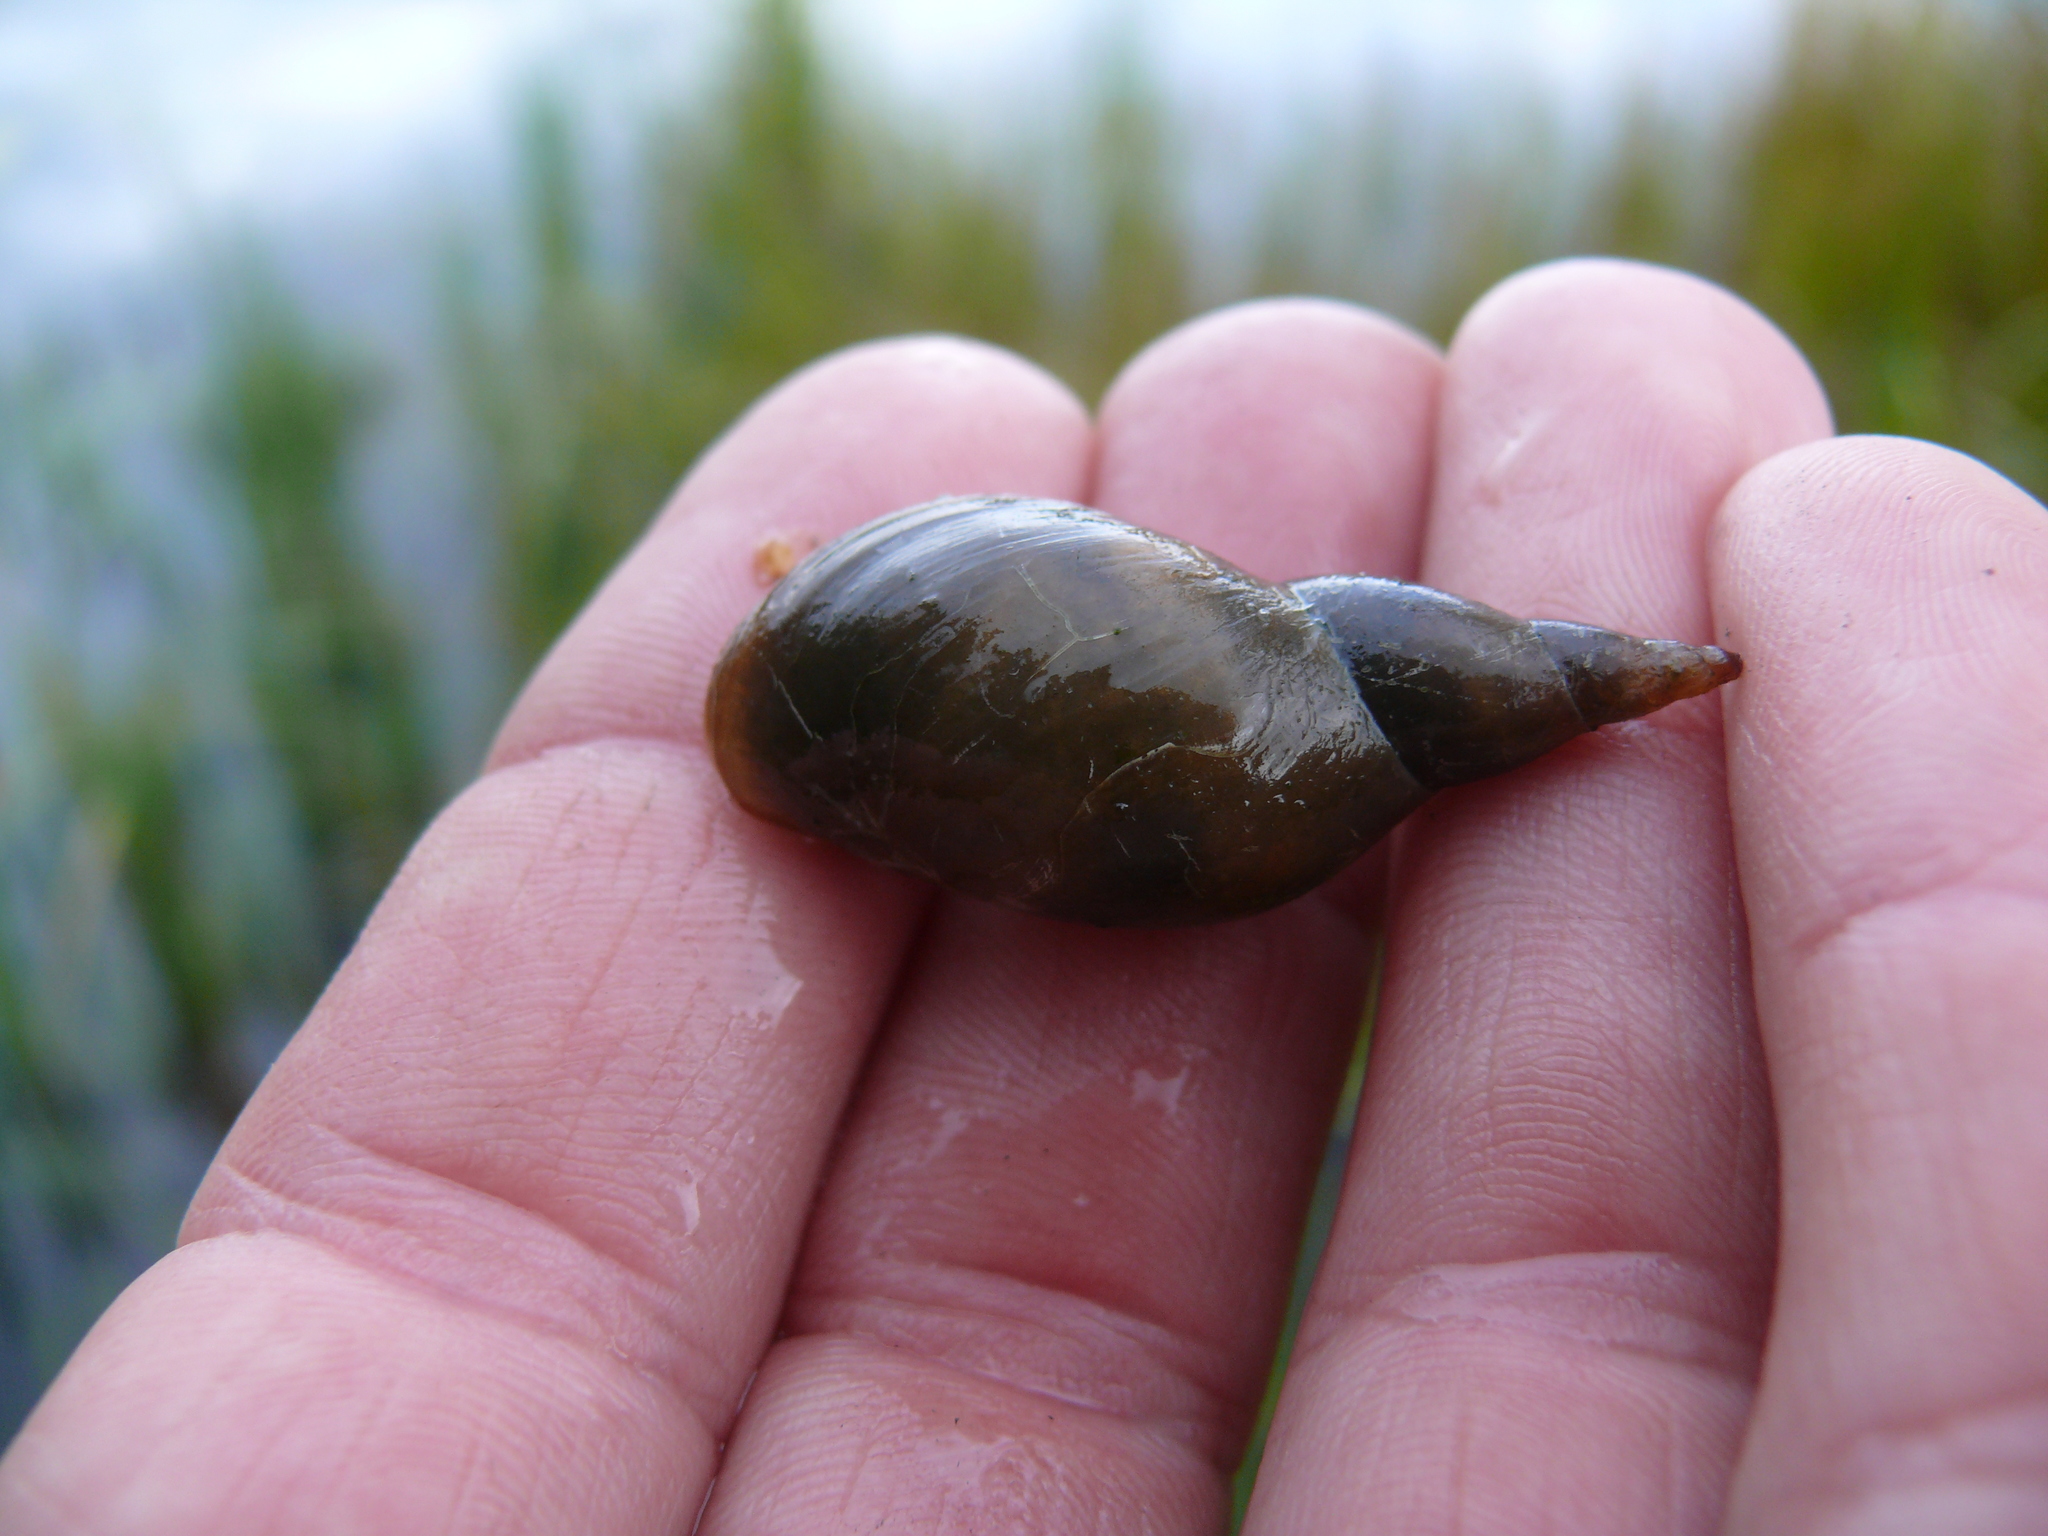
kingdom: Animalia
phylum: Mollusca
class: Gastropoda
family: Lymnaeidae
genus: Lymnaea
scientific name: Lymnaea stagnalis
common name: Great pond snail
